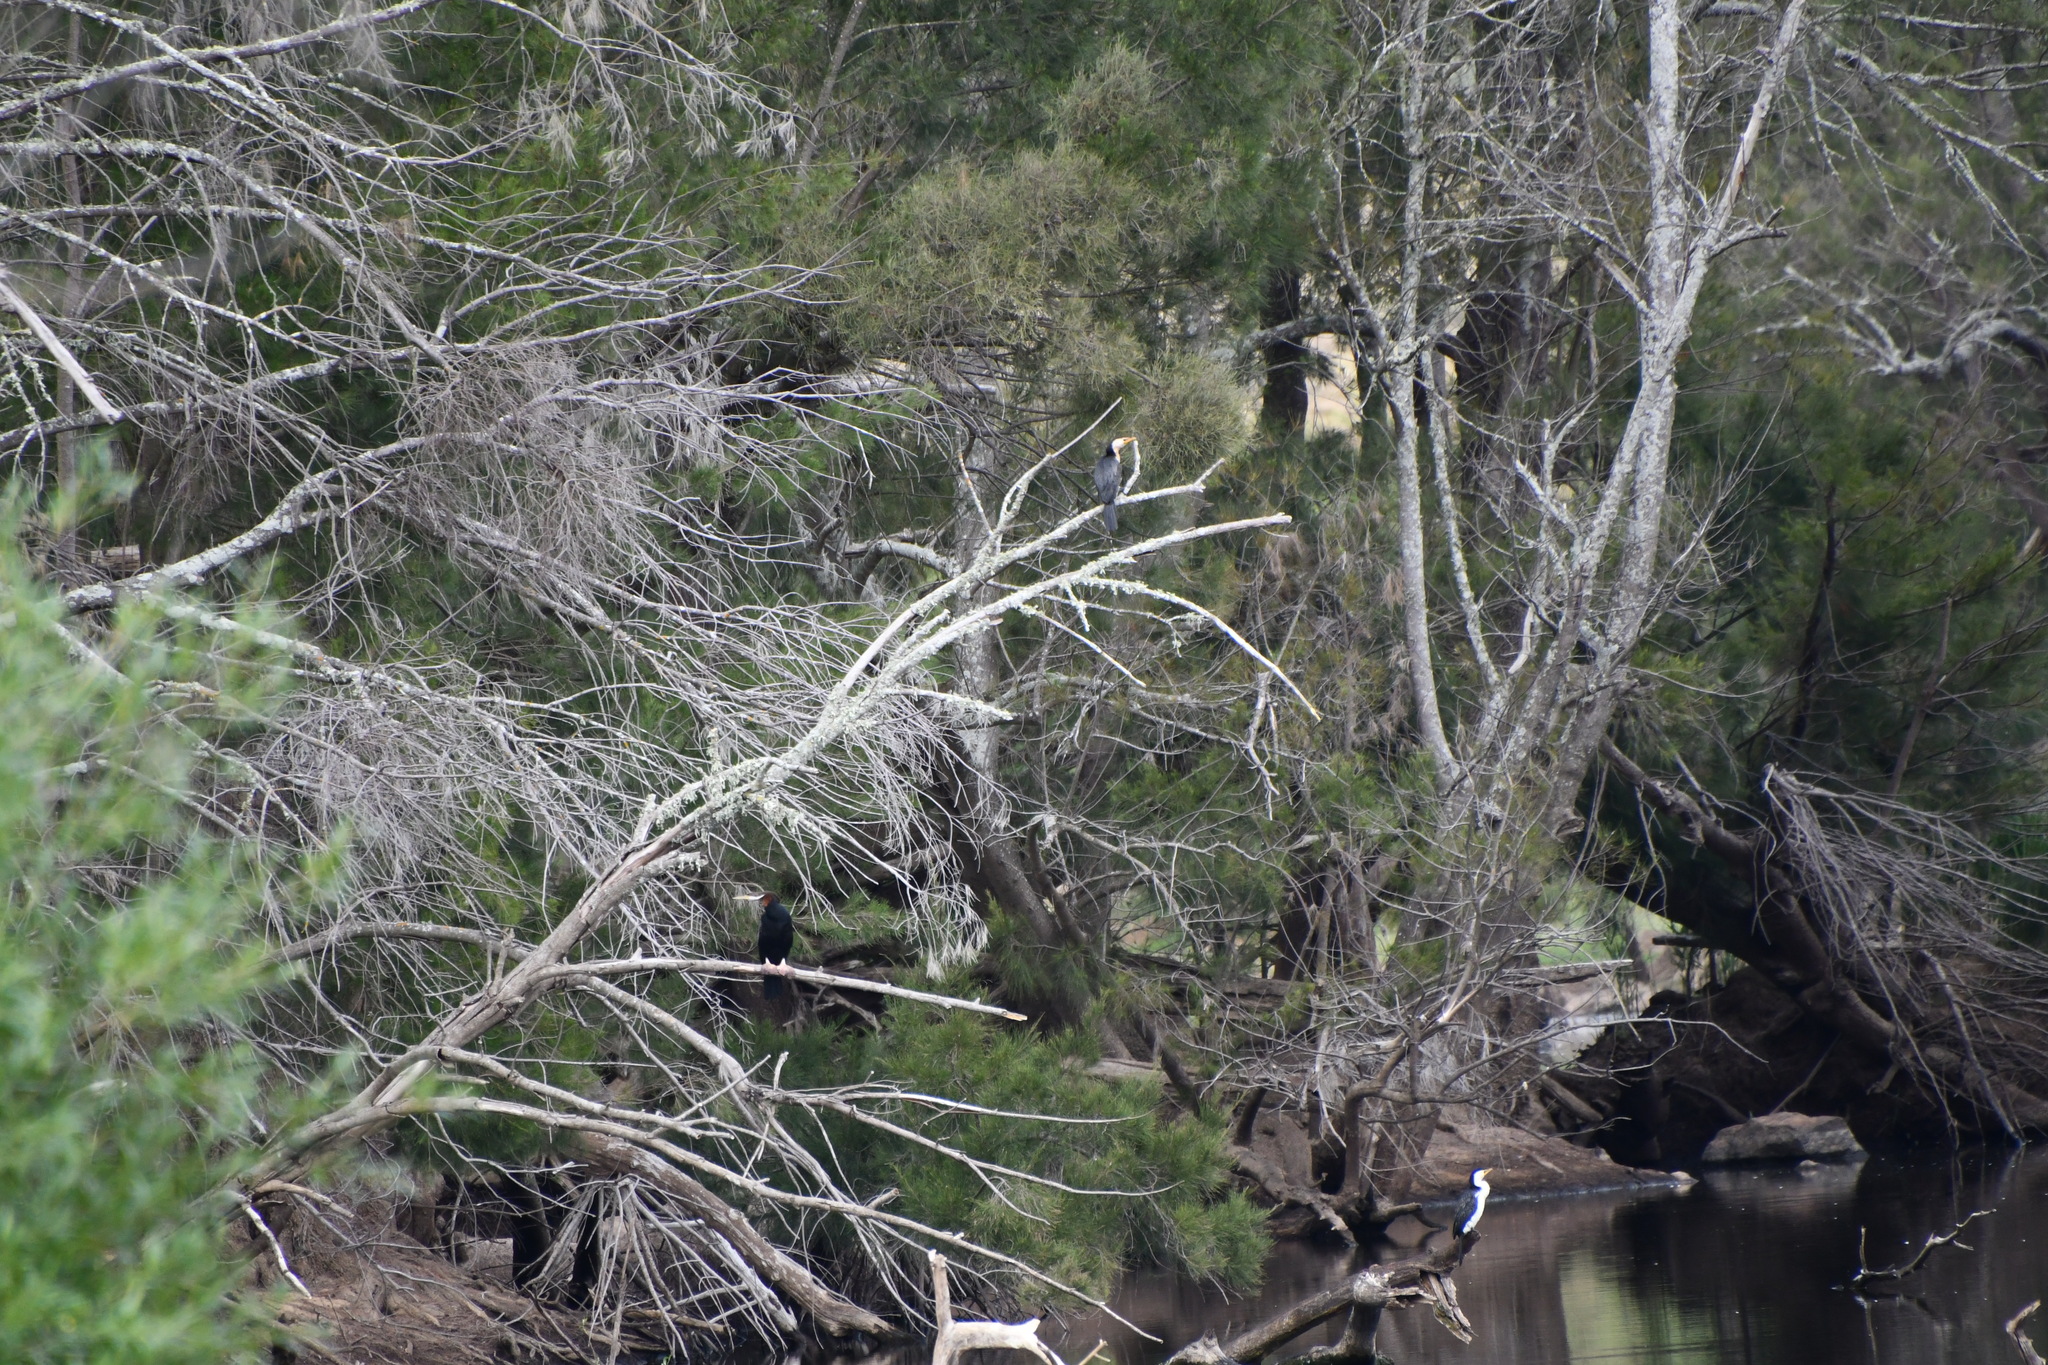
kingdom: Animalia
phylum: Chordata
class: Aves
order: Suliformes
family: Phalacrocoracidae
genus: Microcarbo
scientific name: Microcarbo melanoleucos
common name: Little pied cormorant
